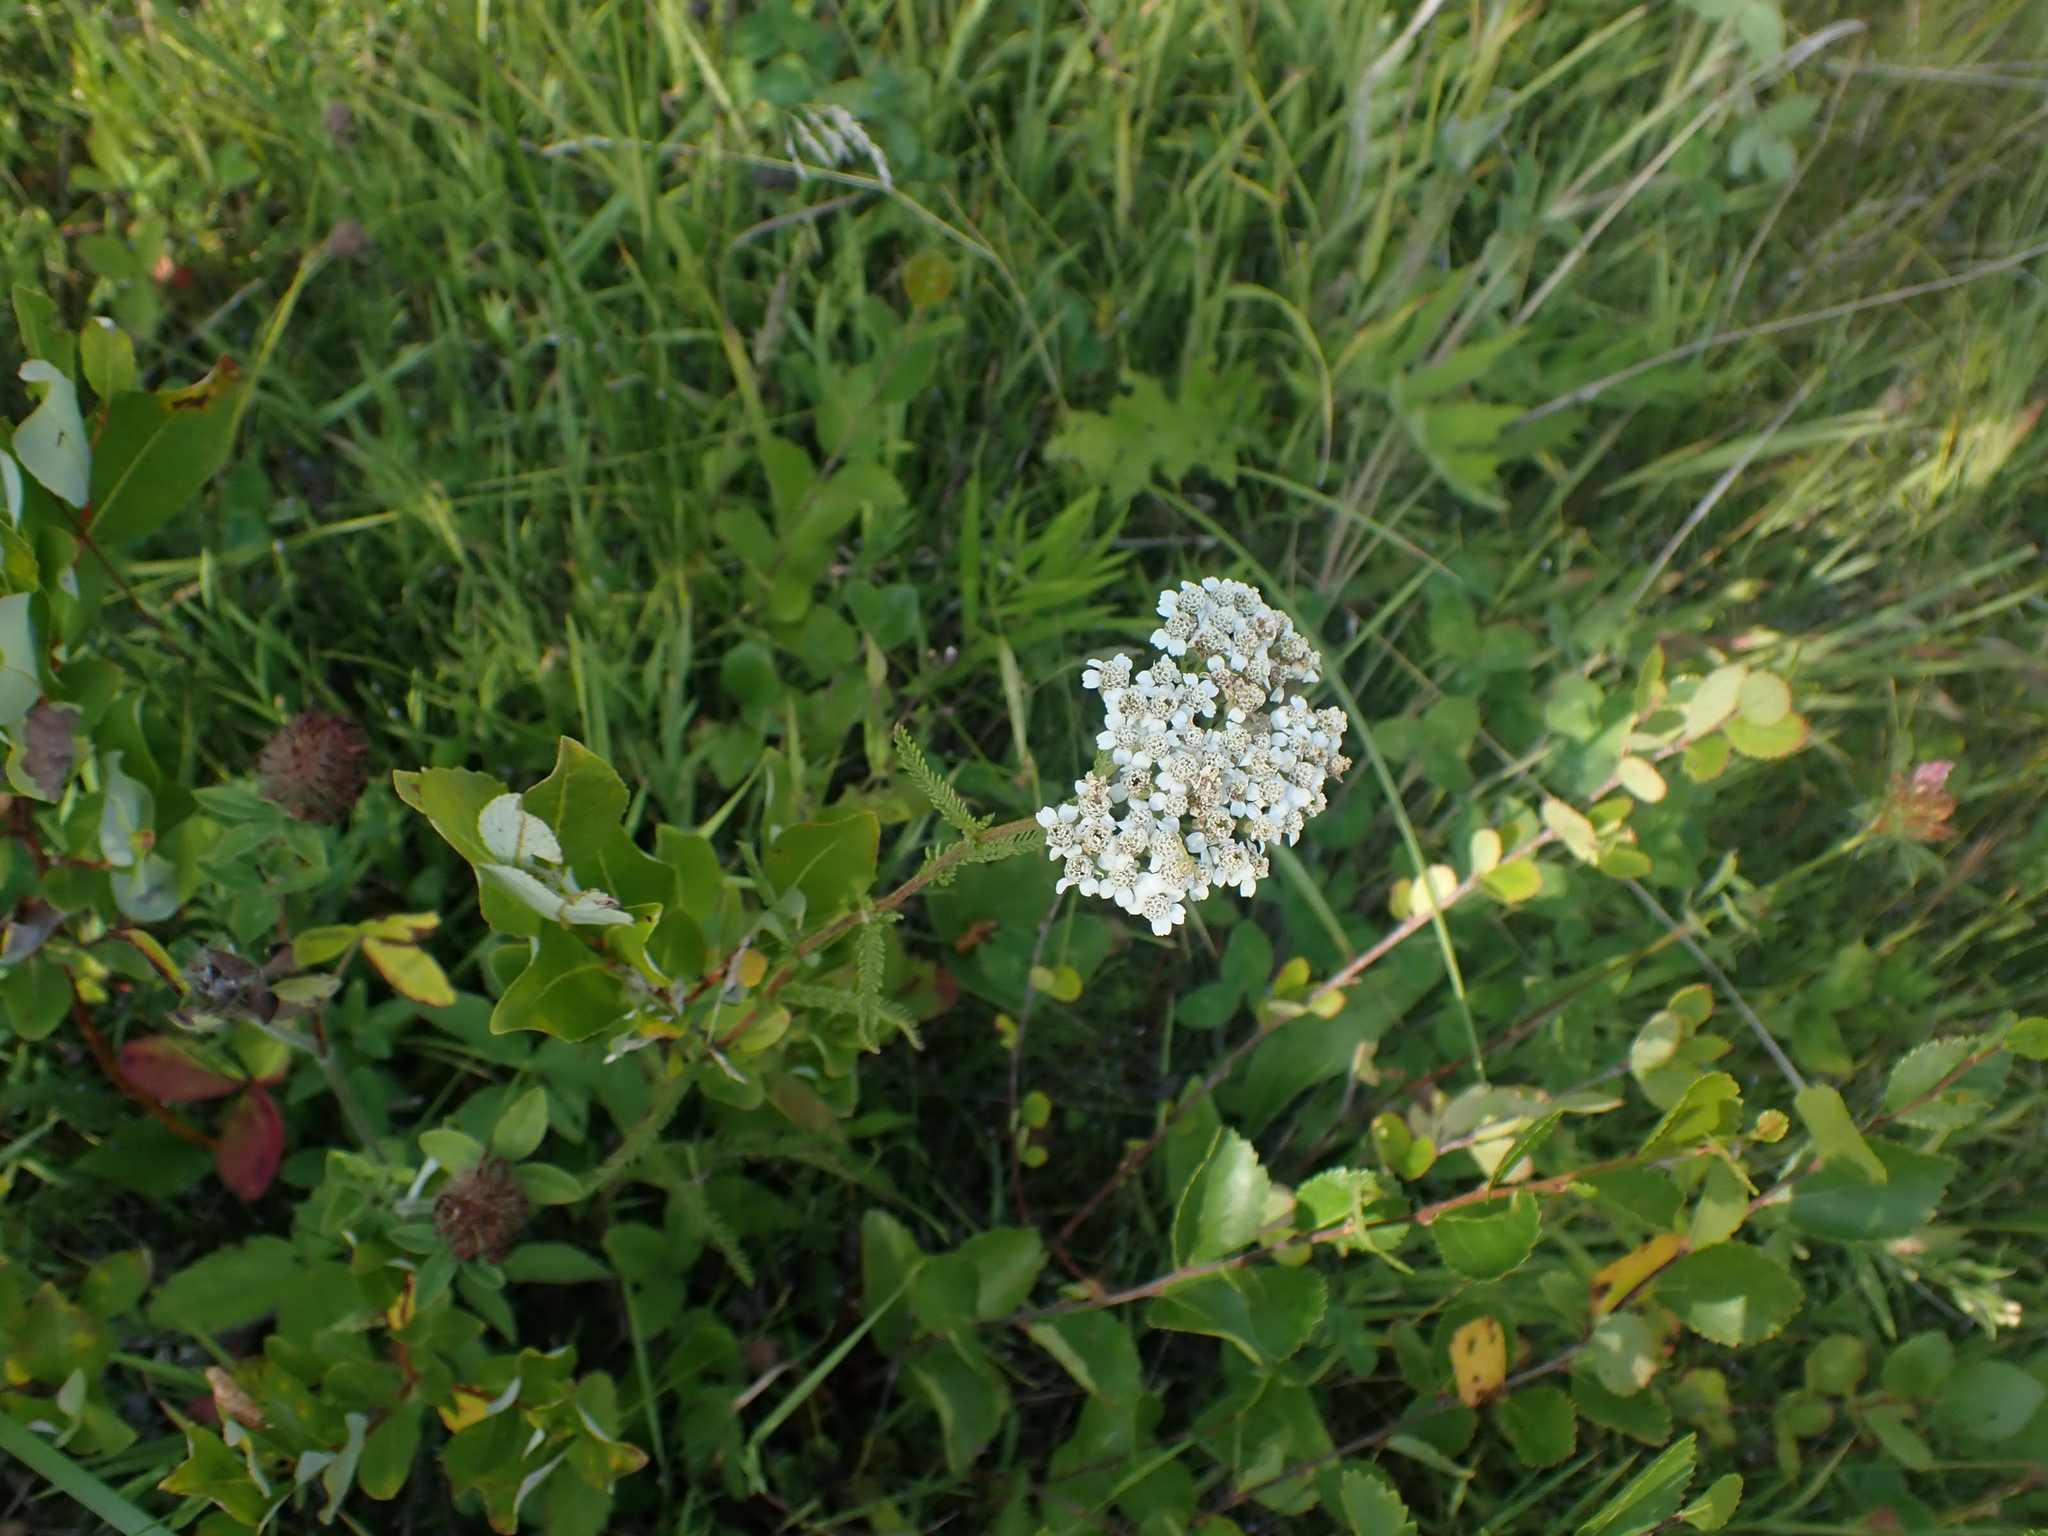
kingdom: Plantae
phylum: Tracheophyta
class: Magnoliopsida
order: Asterales
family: Asteraceae
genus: Achillea
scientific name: Achillea millefolium
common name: Yarrow
